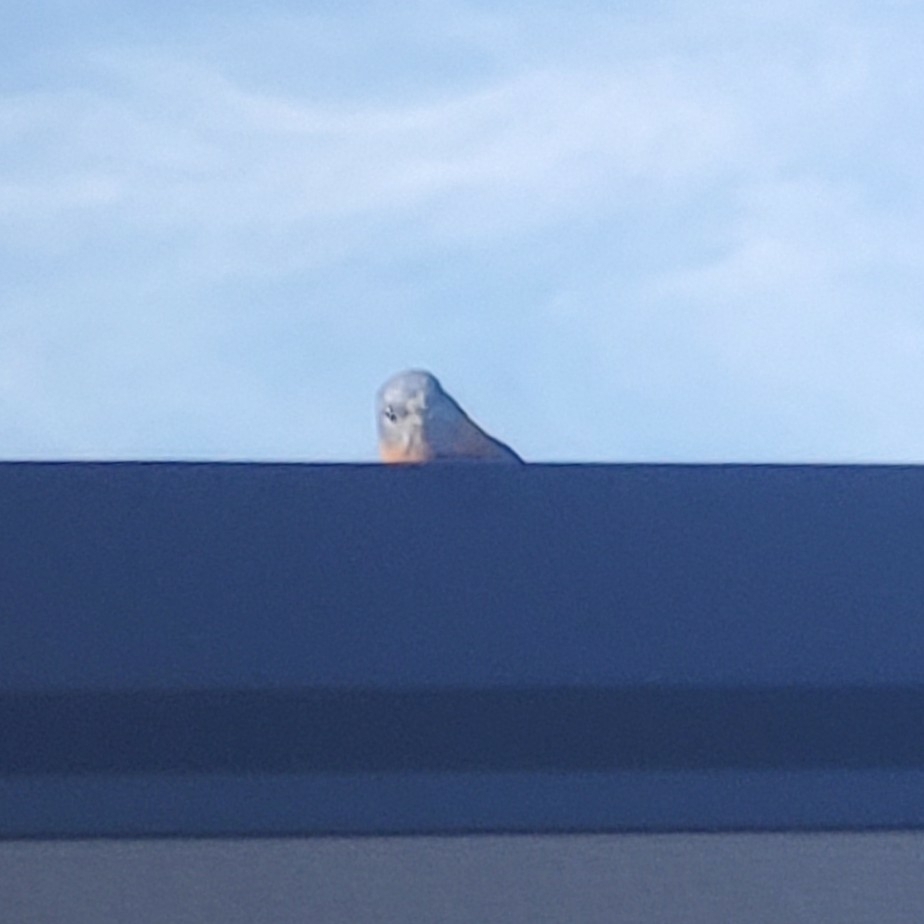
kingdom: Animalia
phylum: Chordata
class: Aves
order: Passeriformes
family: Turdidae
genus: Sialia
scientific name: Sialia sialis
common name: Eastern bluebird
